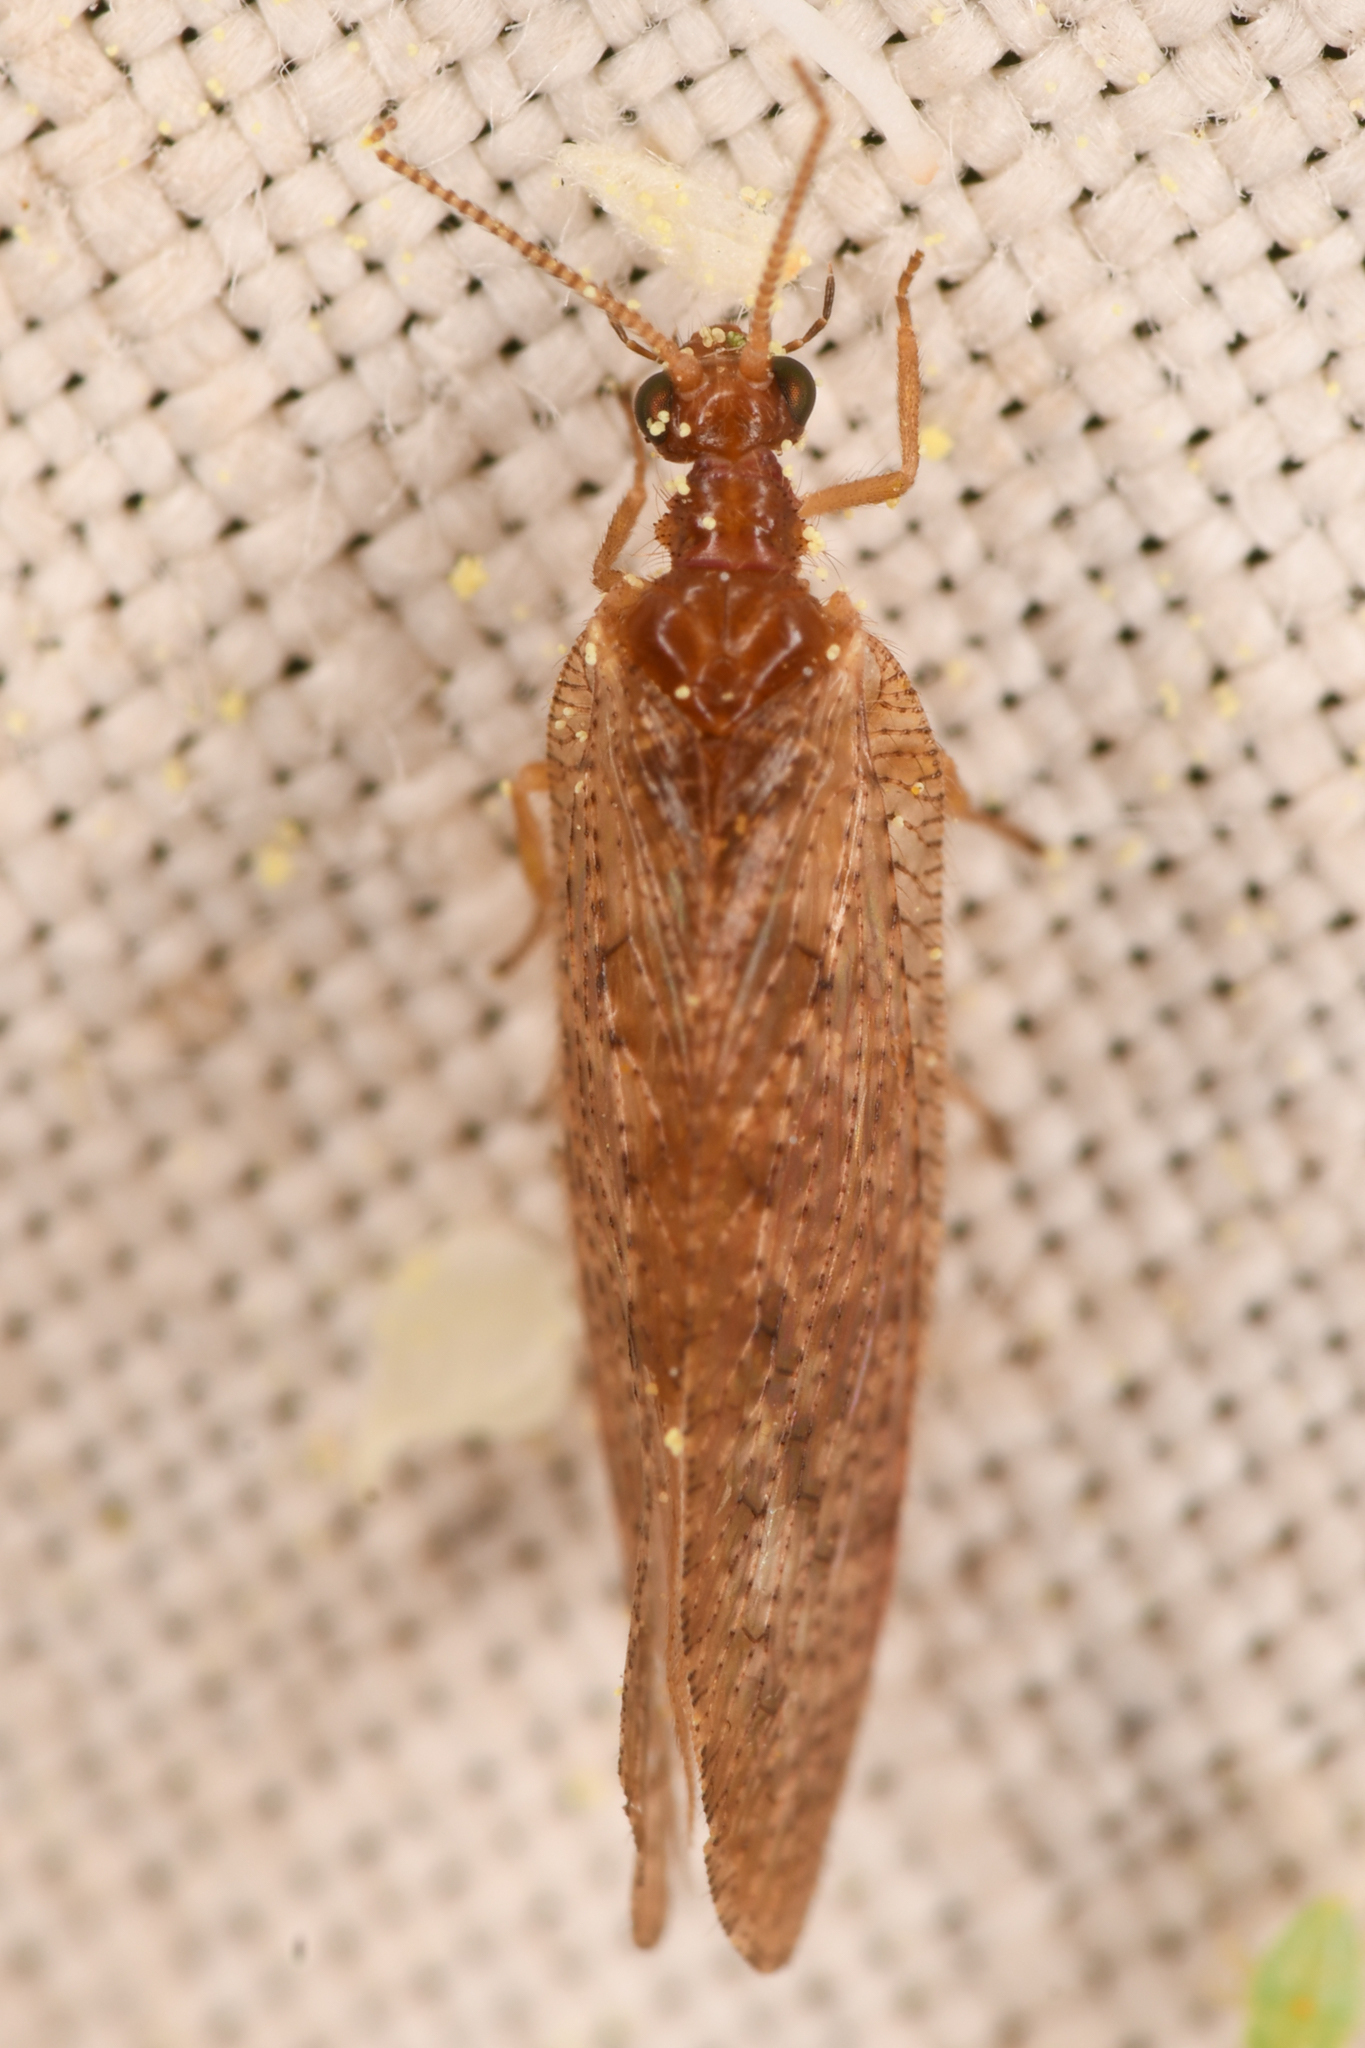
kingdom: Animalia
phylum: Arthropoda
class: Insecta
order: Neuroptera
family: Hemerobiidae
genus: Hemerobius
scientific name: Hemerobius stigma
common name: Brown pine lacewing
